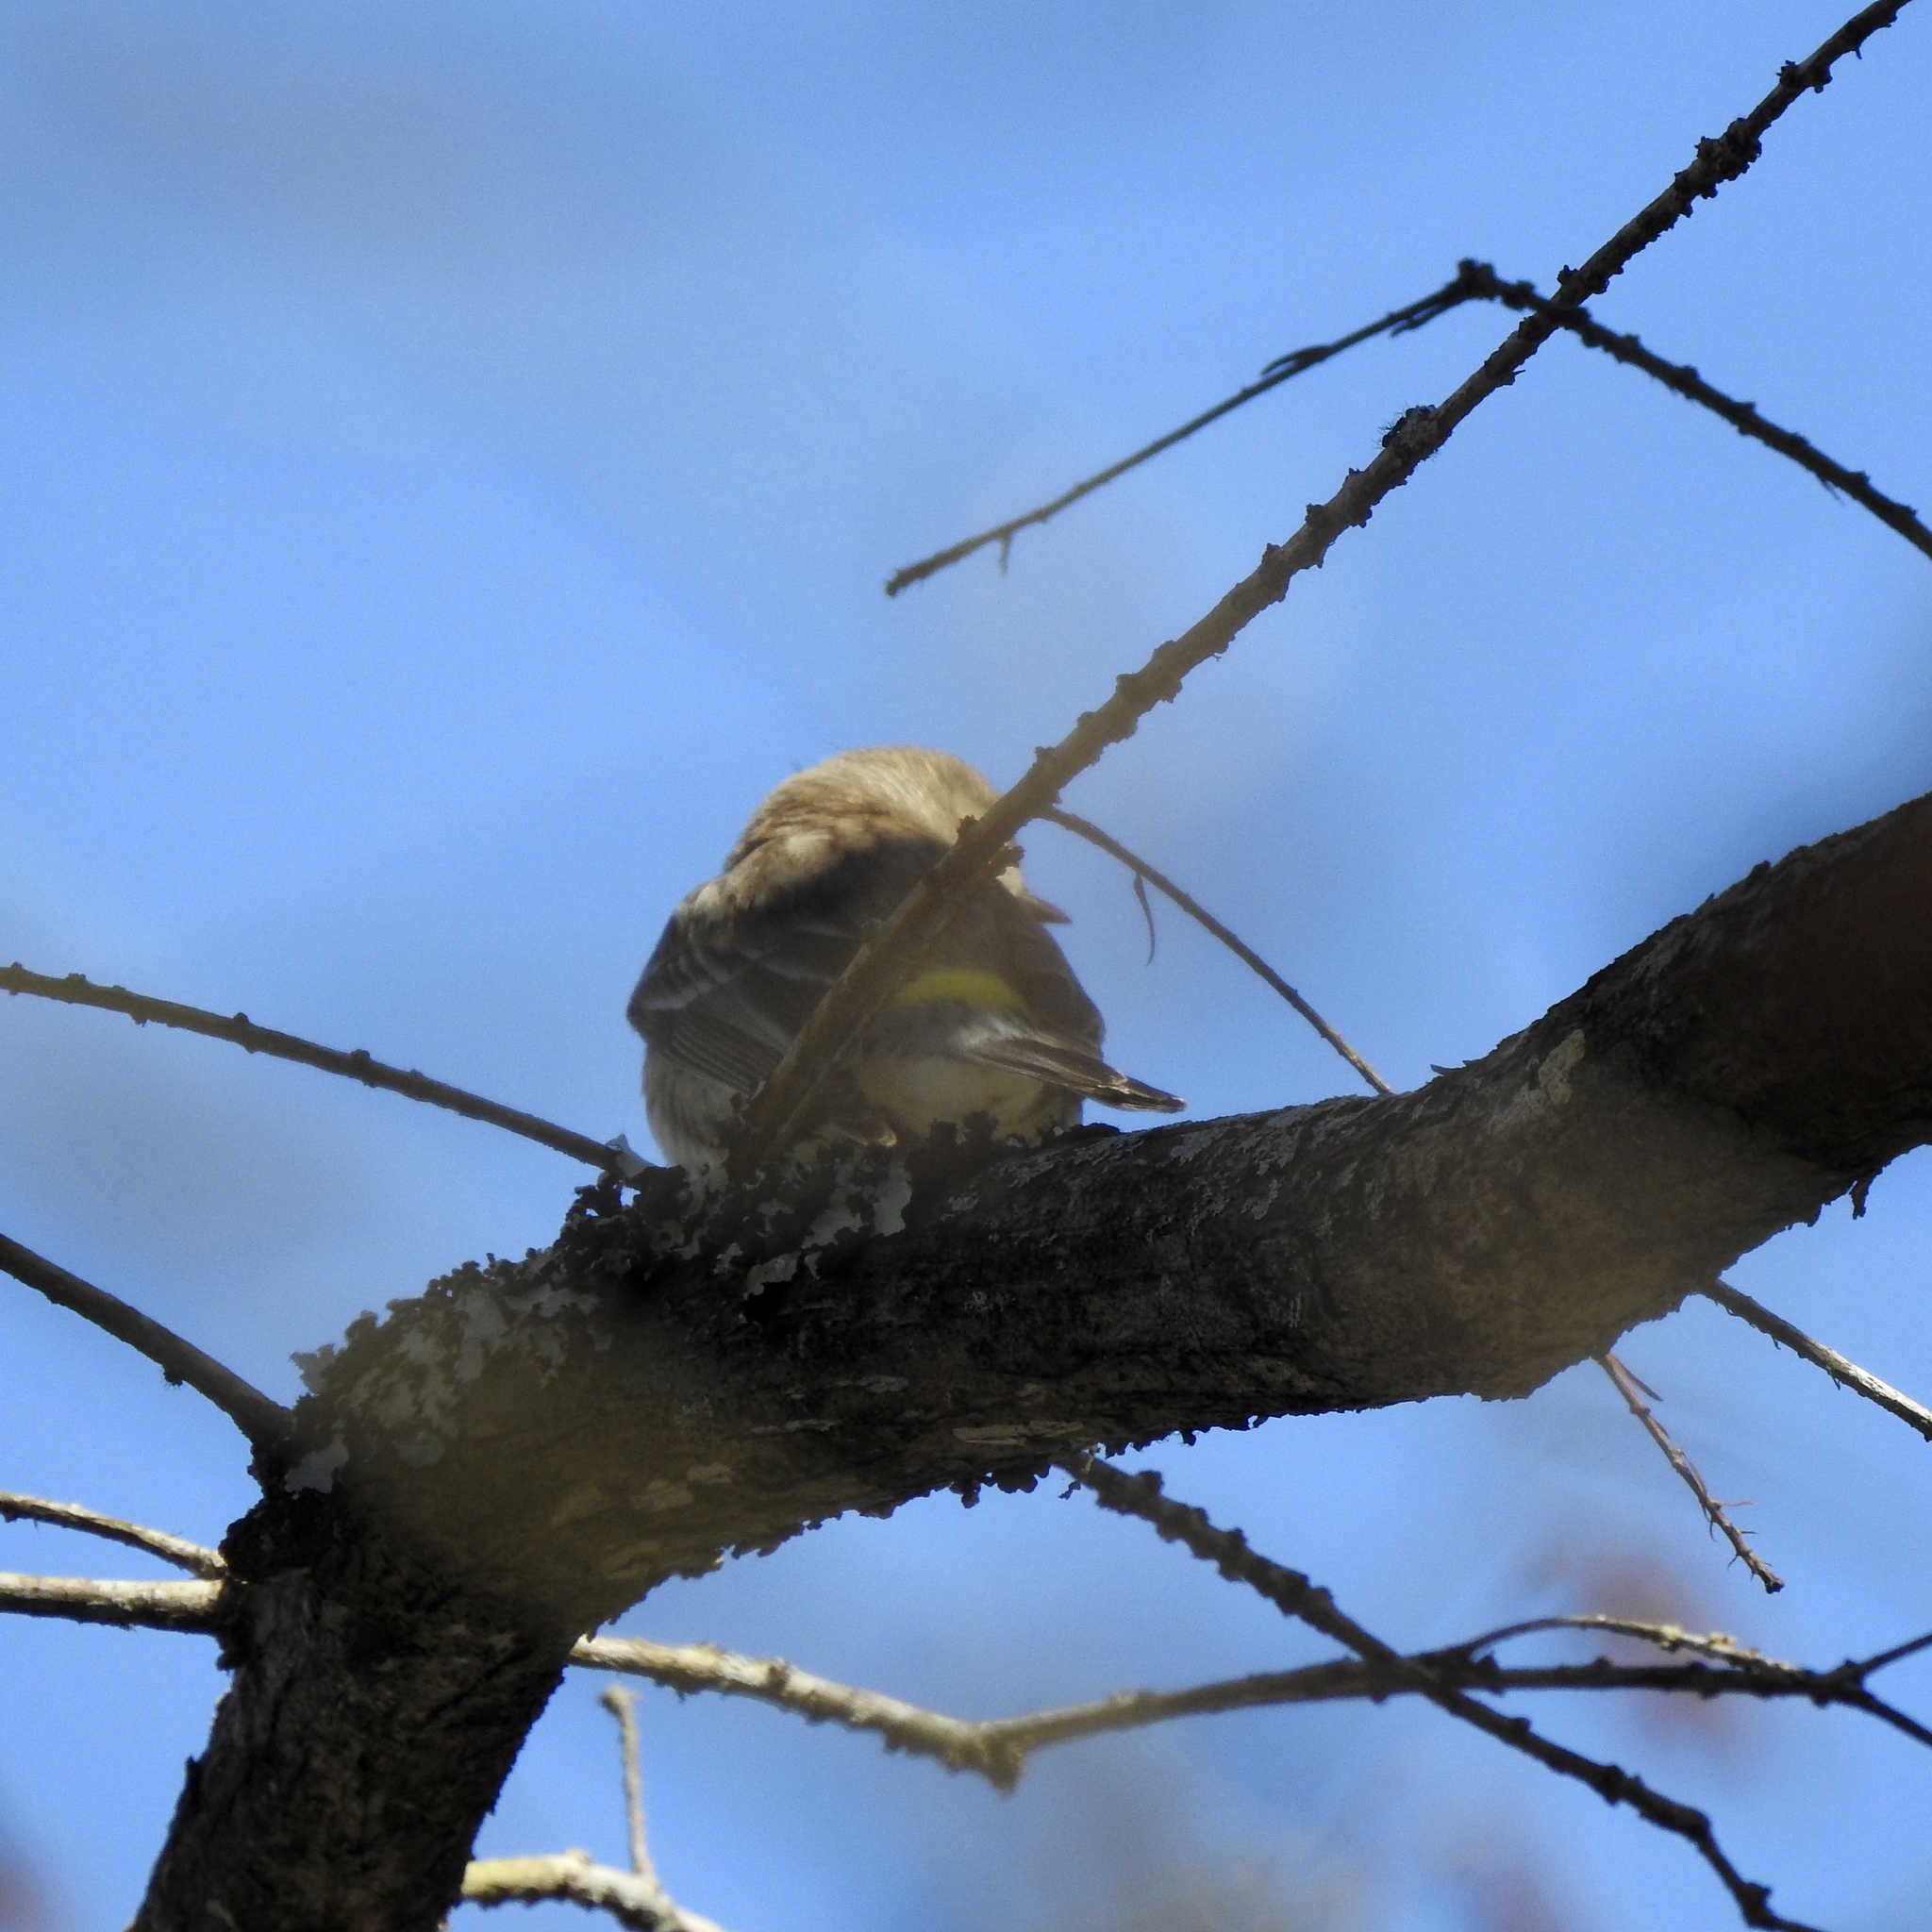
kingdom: Animalia
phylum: Chordata
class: Aves
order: Passeriformes
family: Parulidae
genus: Setophaga
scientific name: Setophaga pinus
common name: Pine warbler
